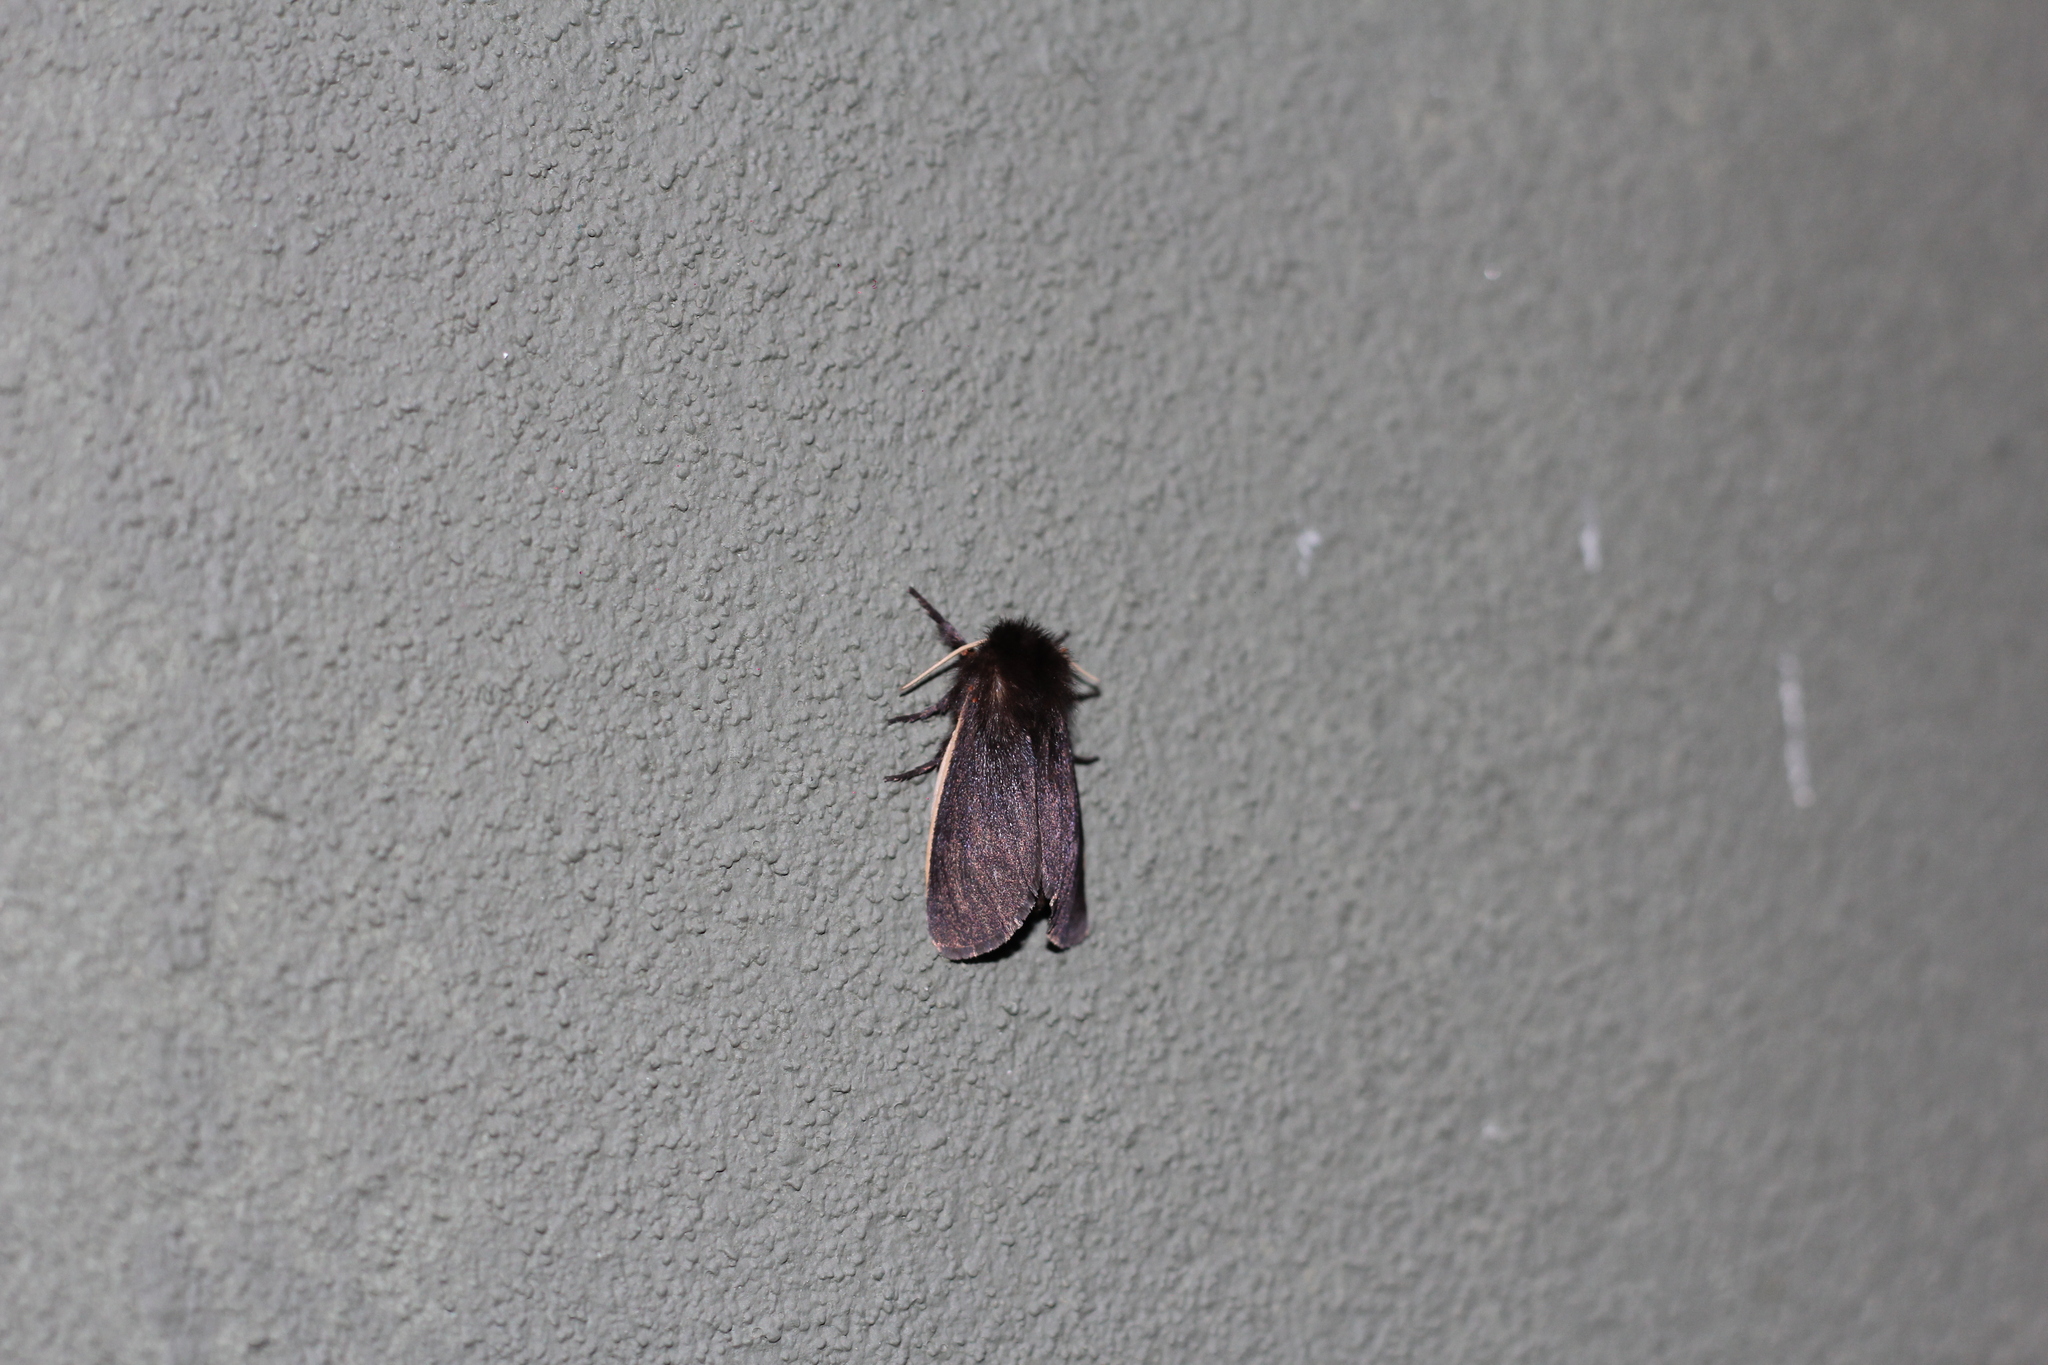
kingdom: Animalia
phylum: Arthropoda
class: Insecta
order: Lepidoptera
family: Erebidae
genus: Paracles
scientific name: Paracles contraria
